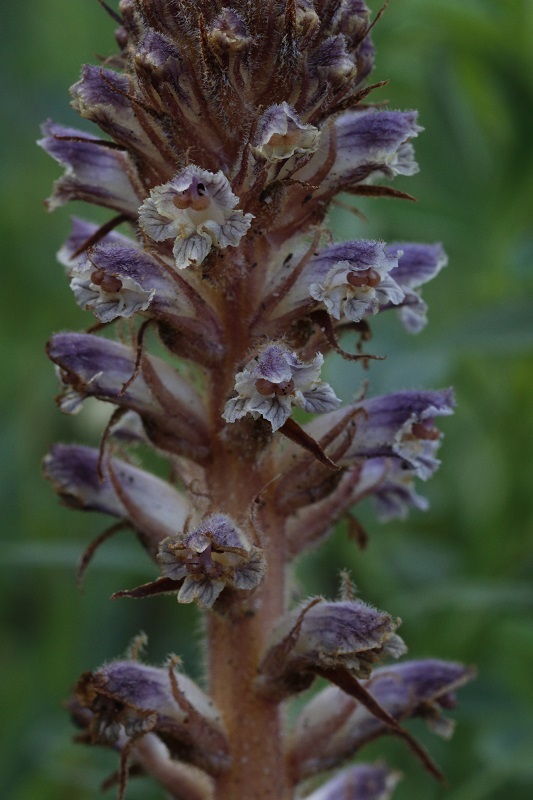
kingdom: Plantae
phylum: Tracheophyta
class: Magnoliopsida
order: Lamiales
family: Orobanchaceae
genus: Orobanche
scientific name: Orobanche minor
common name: Common broomrape
